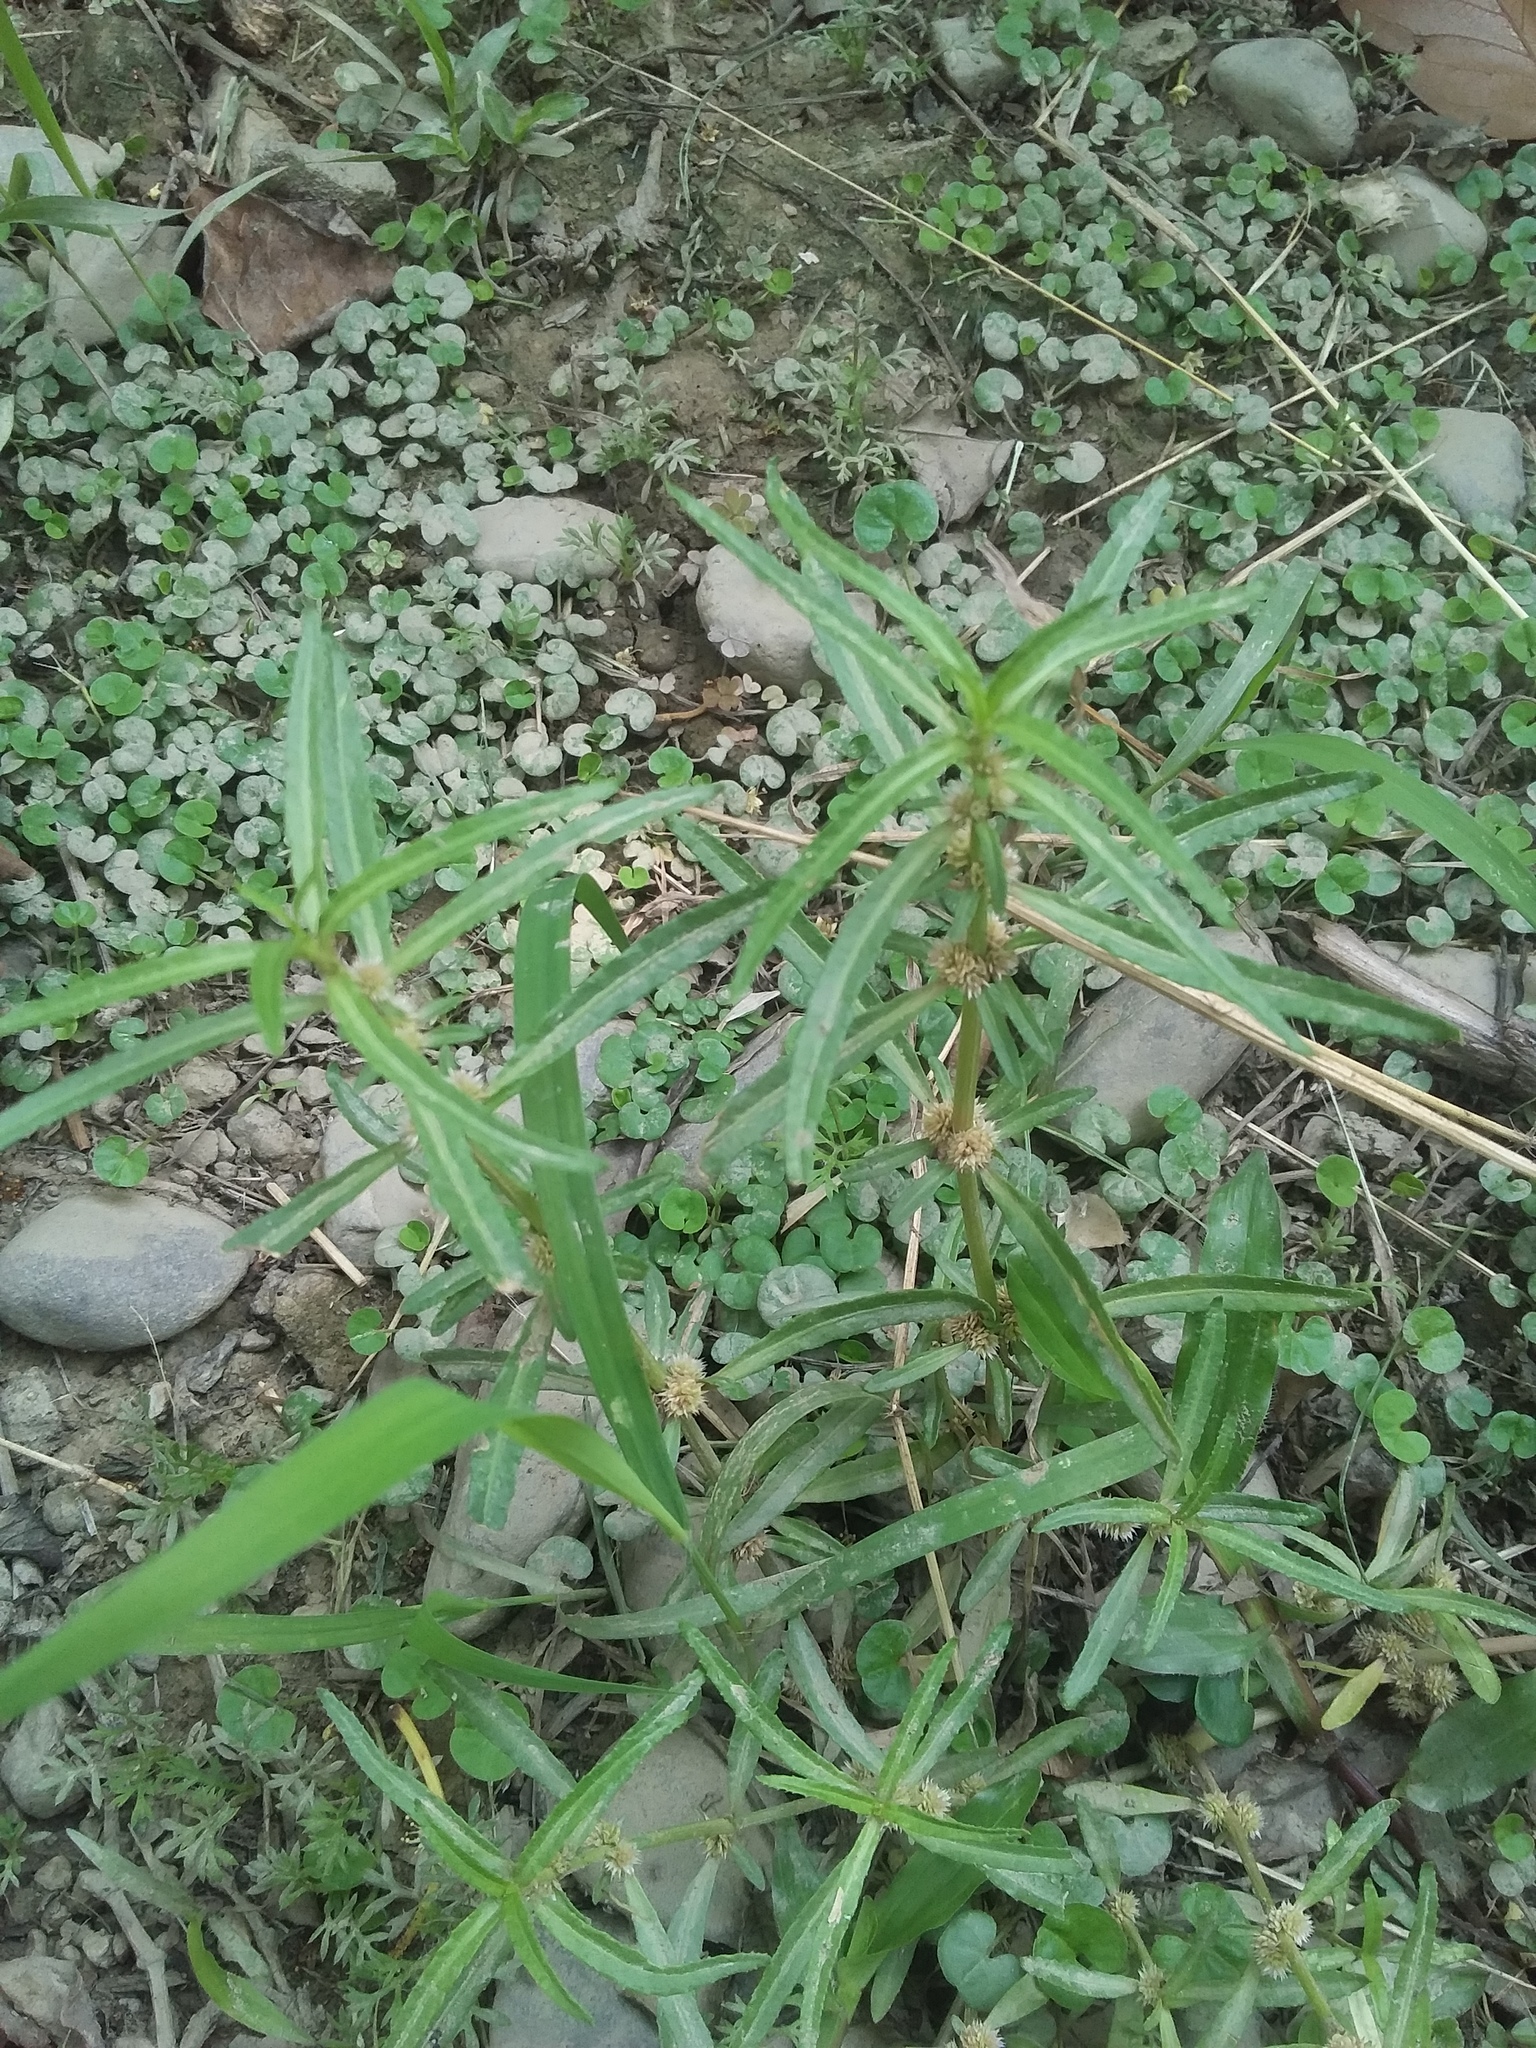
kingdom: Plantae
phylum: Tracheophyta
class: Magnoliopsida
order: Caryophyllales
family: Amaranthaceae
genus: Alternanthera
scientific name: Alternanthera sessilis
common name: Sessile joyweed
